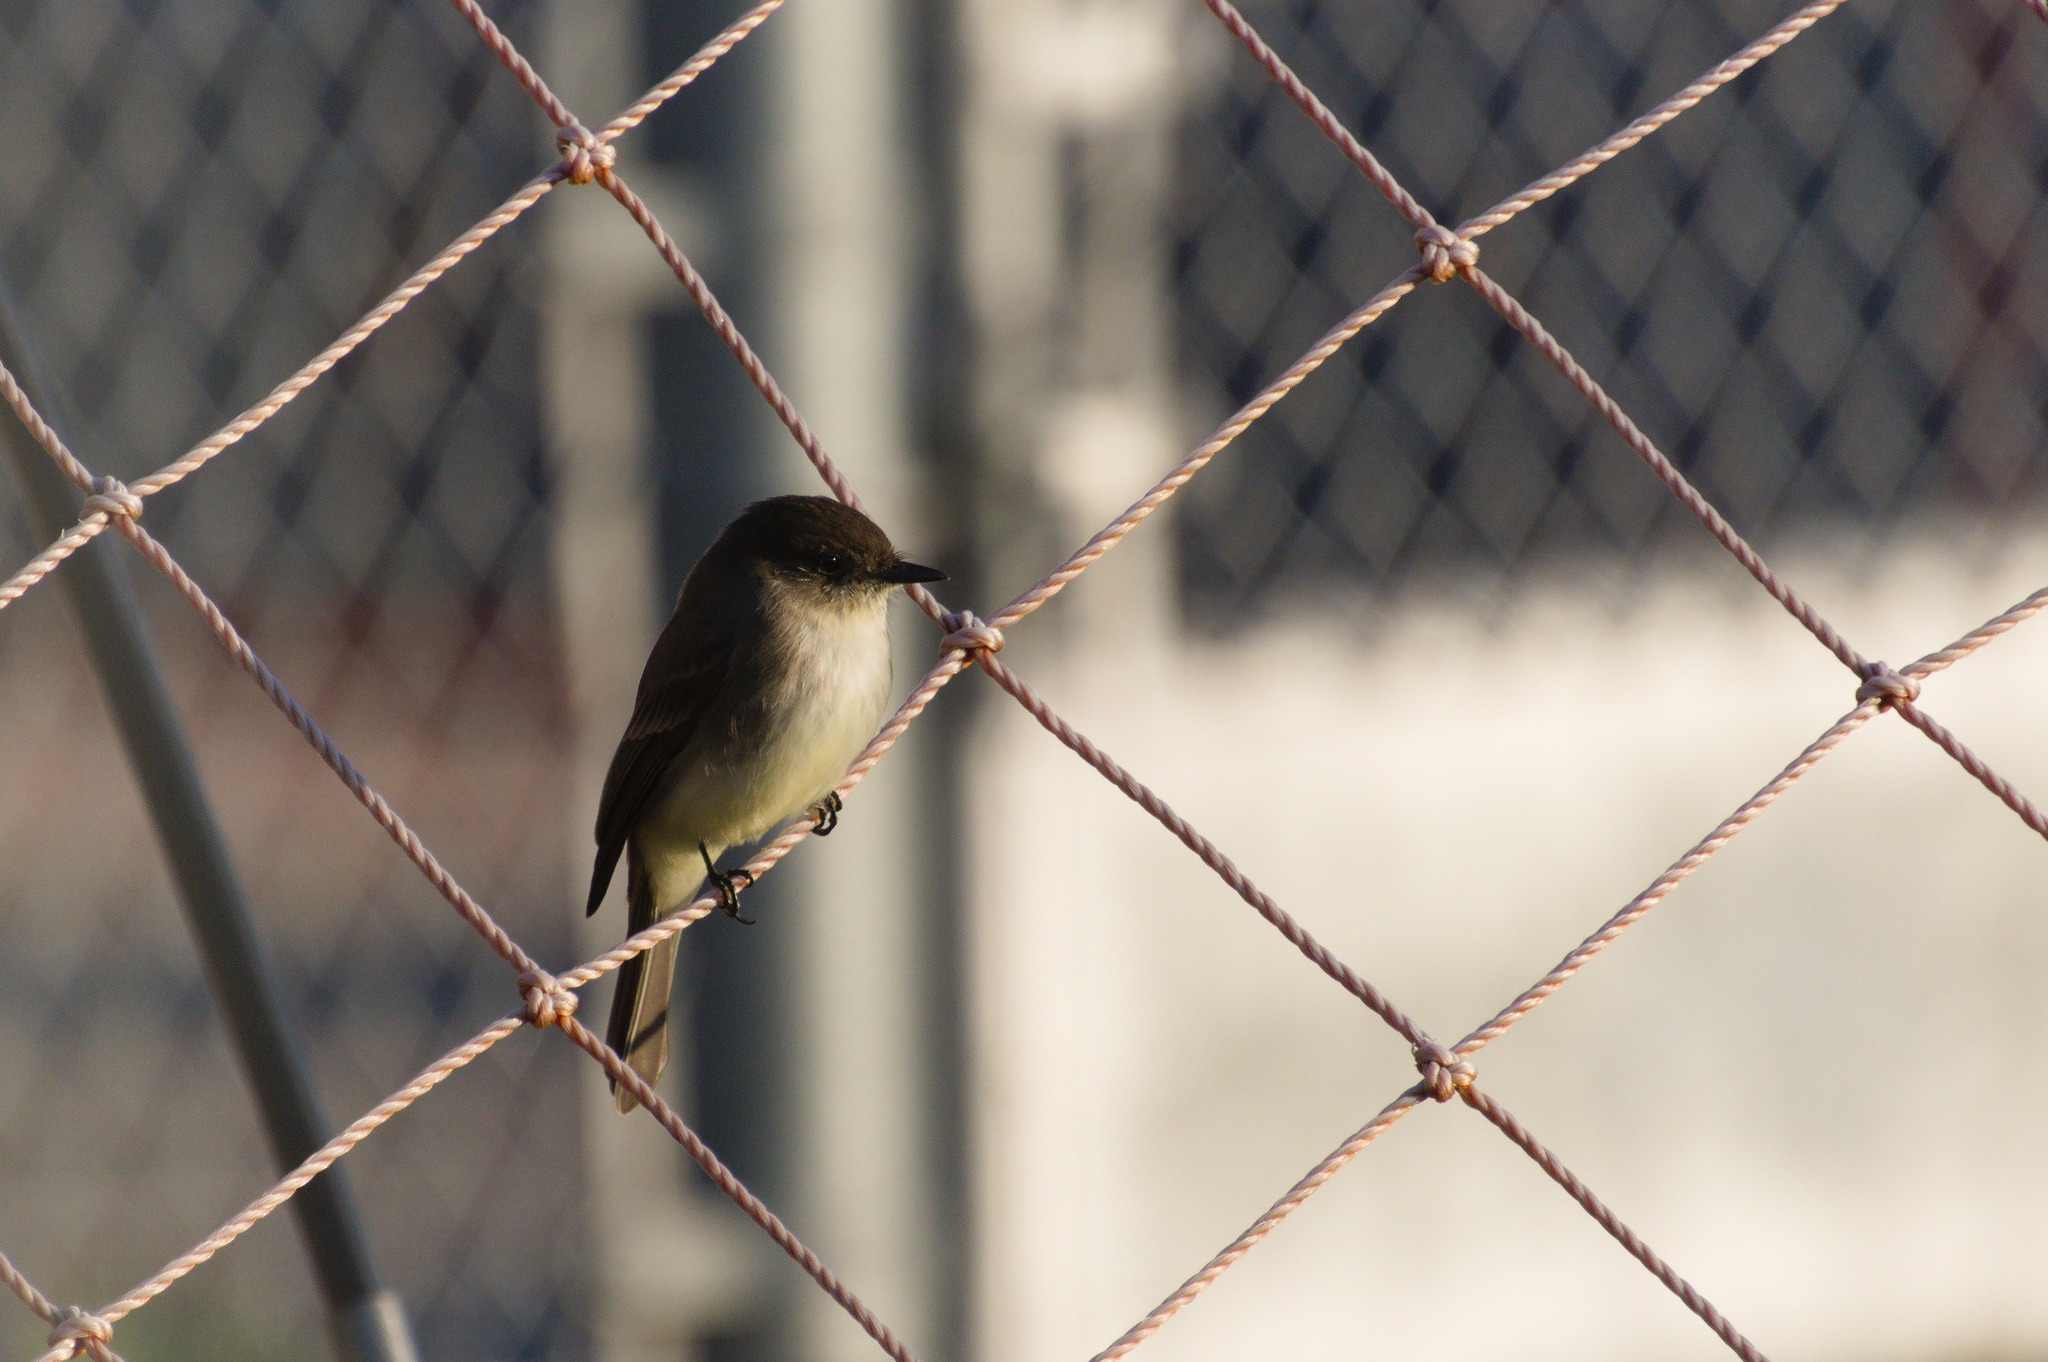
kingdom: Animalia
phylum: Chordata
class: Aves
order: Passeriformes
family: Tyrannidae
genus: Sayornis
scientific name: Sayornis phoebe
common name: Eastern phoebe
